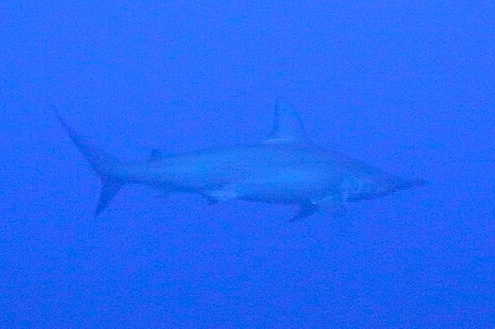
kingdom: Animalia
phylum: Chordata
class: Elasmobranchii
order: Carcharhiniformes
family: Sphyrnidae
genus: Sphyrna
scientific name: Sphyrna lewini
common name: Scalloped hammerhead
